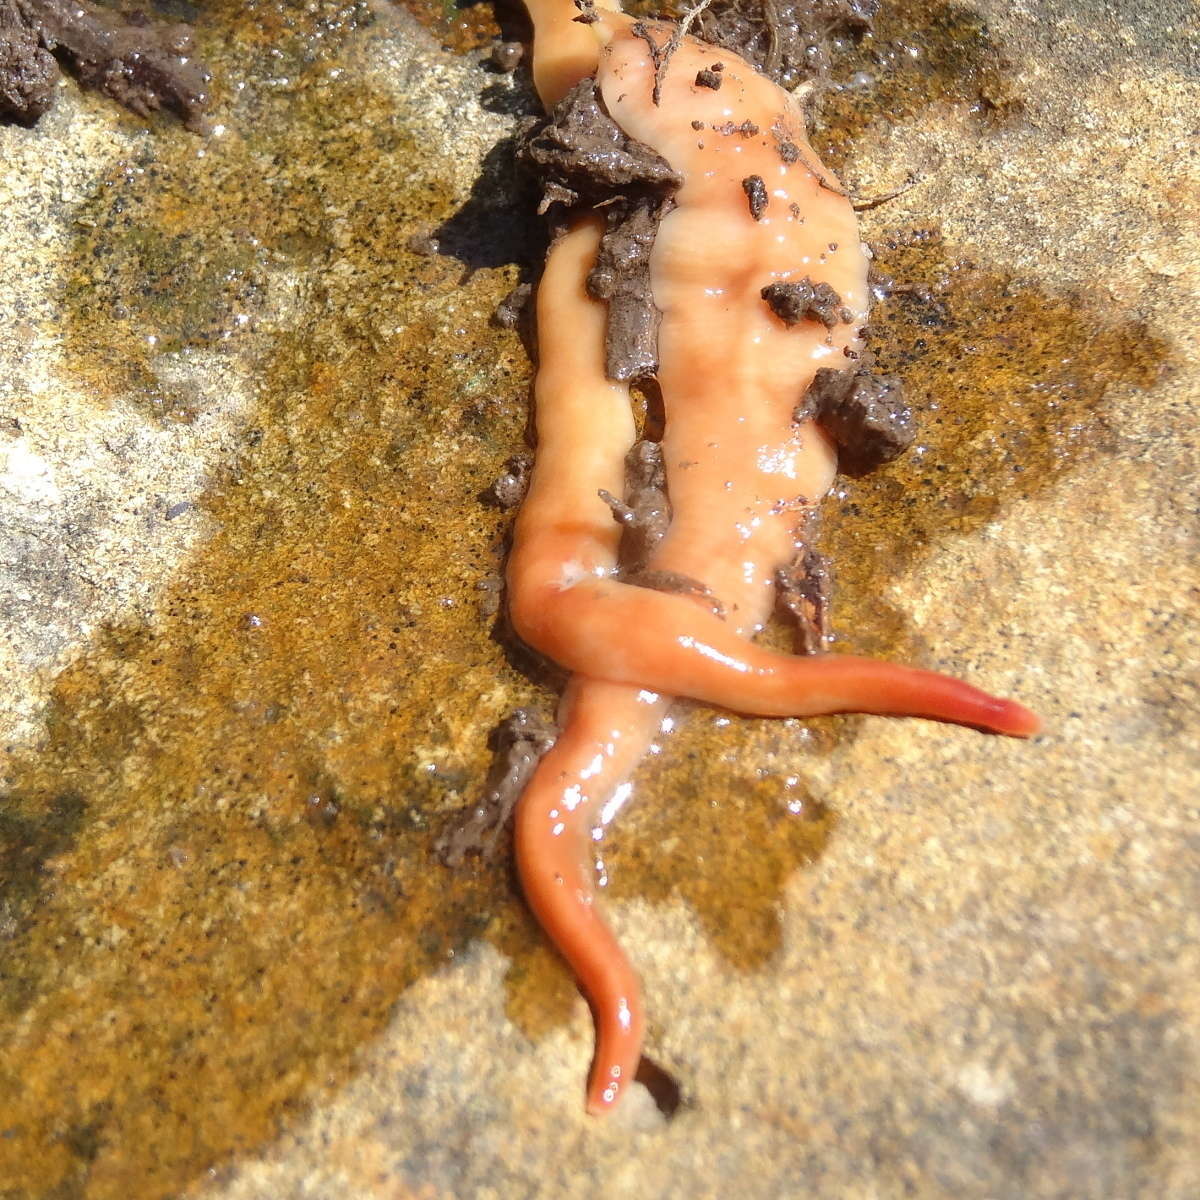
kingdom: Animalia
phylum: Platyhelminthes
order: Tricladida
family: Geoplanidae
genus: Australoplana
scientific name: Australoplana alba
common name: Australian flatworm
